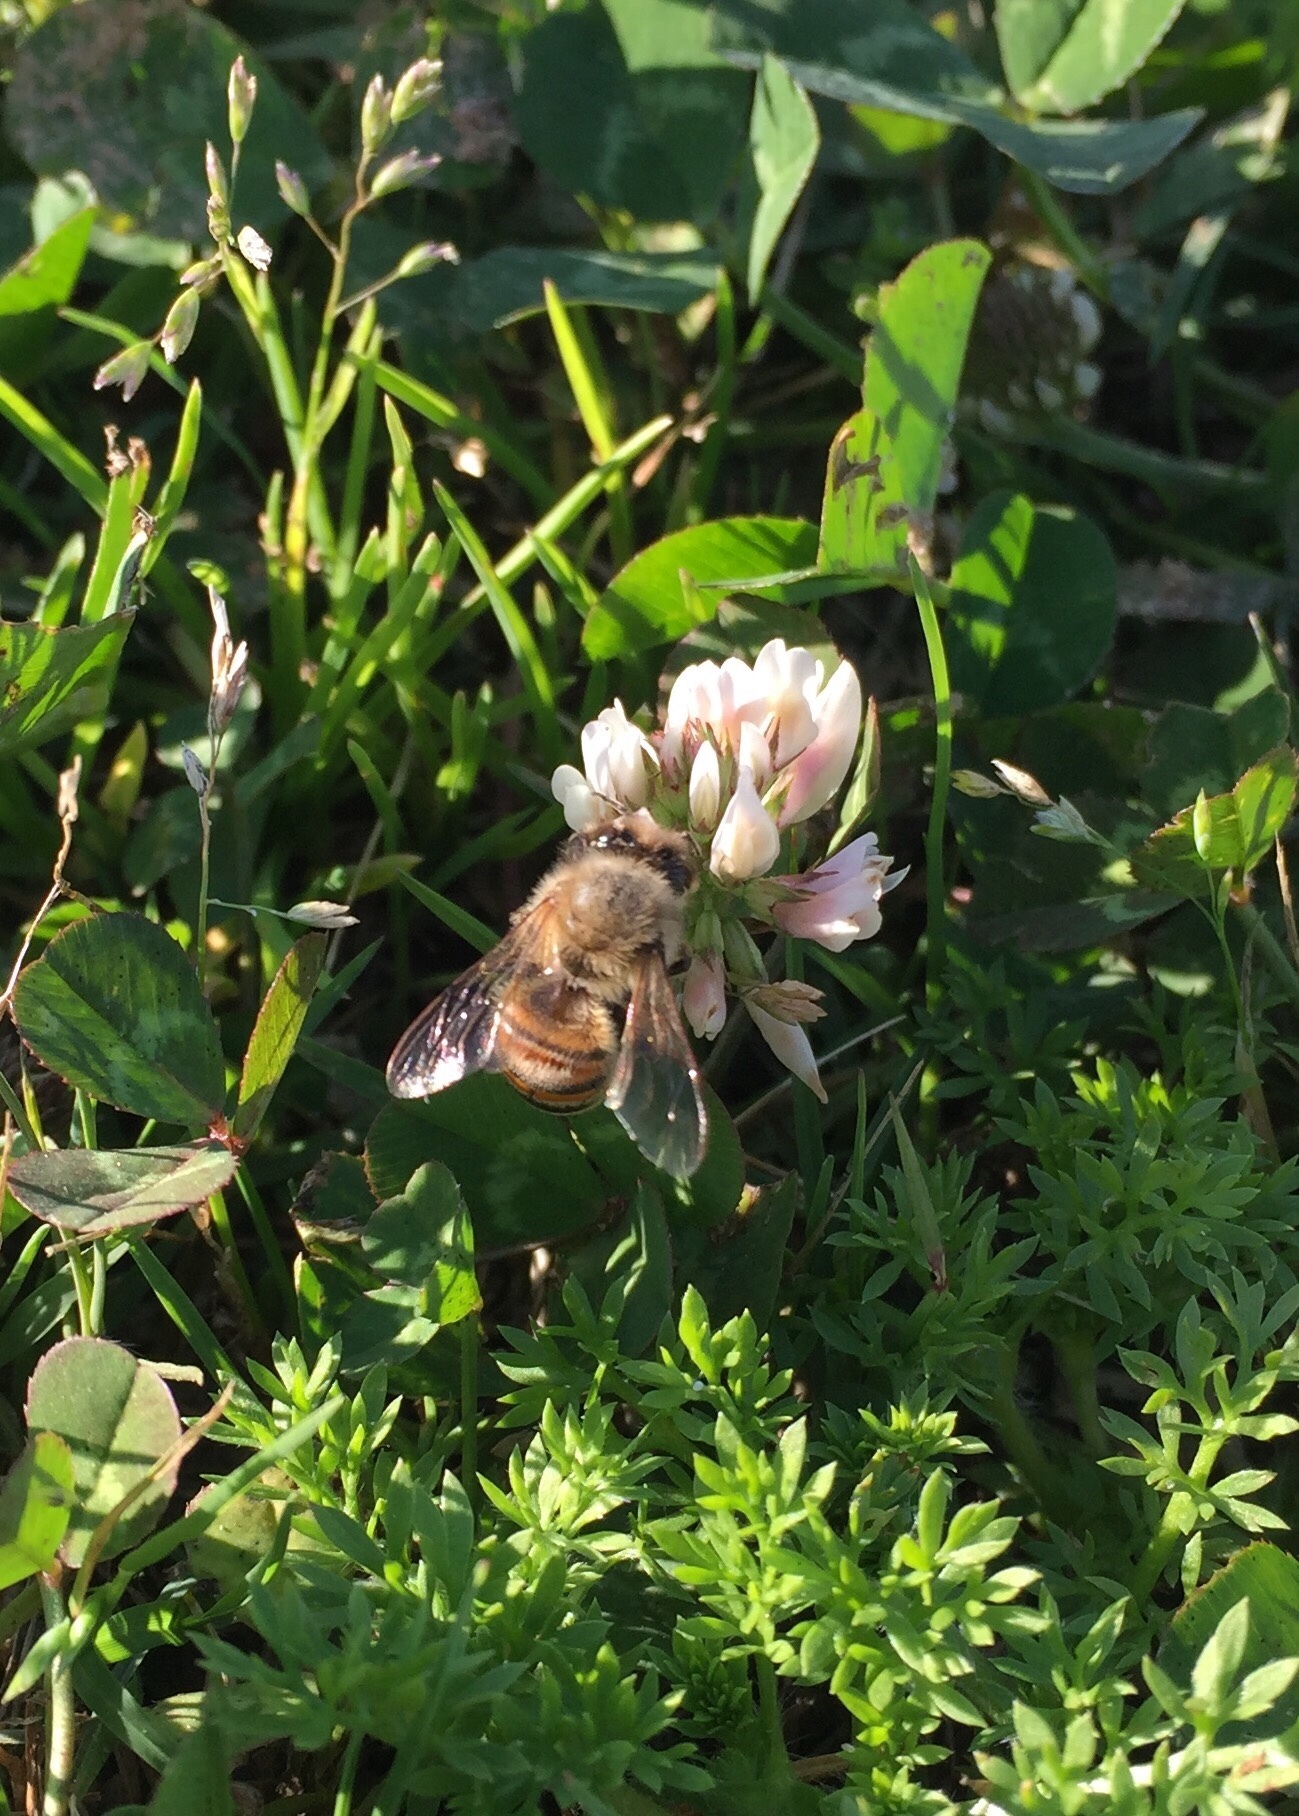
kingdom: Animalia
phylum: Arthropoda
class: Insecta
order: Hymenoptera
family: Apidae
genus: Apis
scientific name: Apis mellifera
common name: Honey bee
